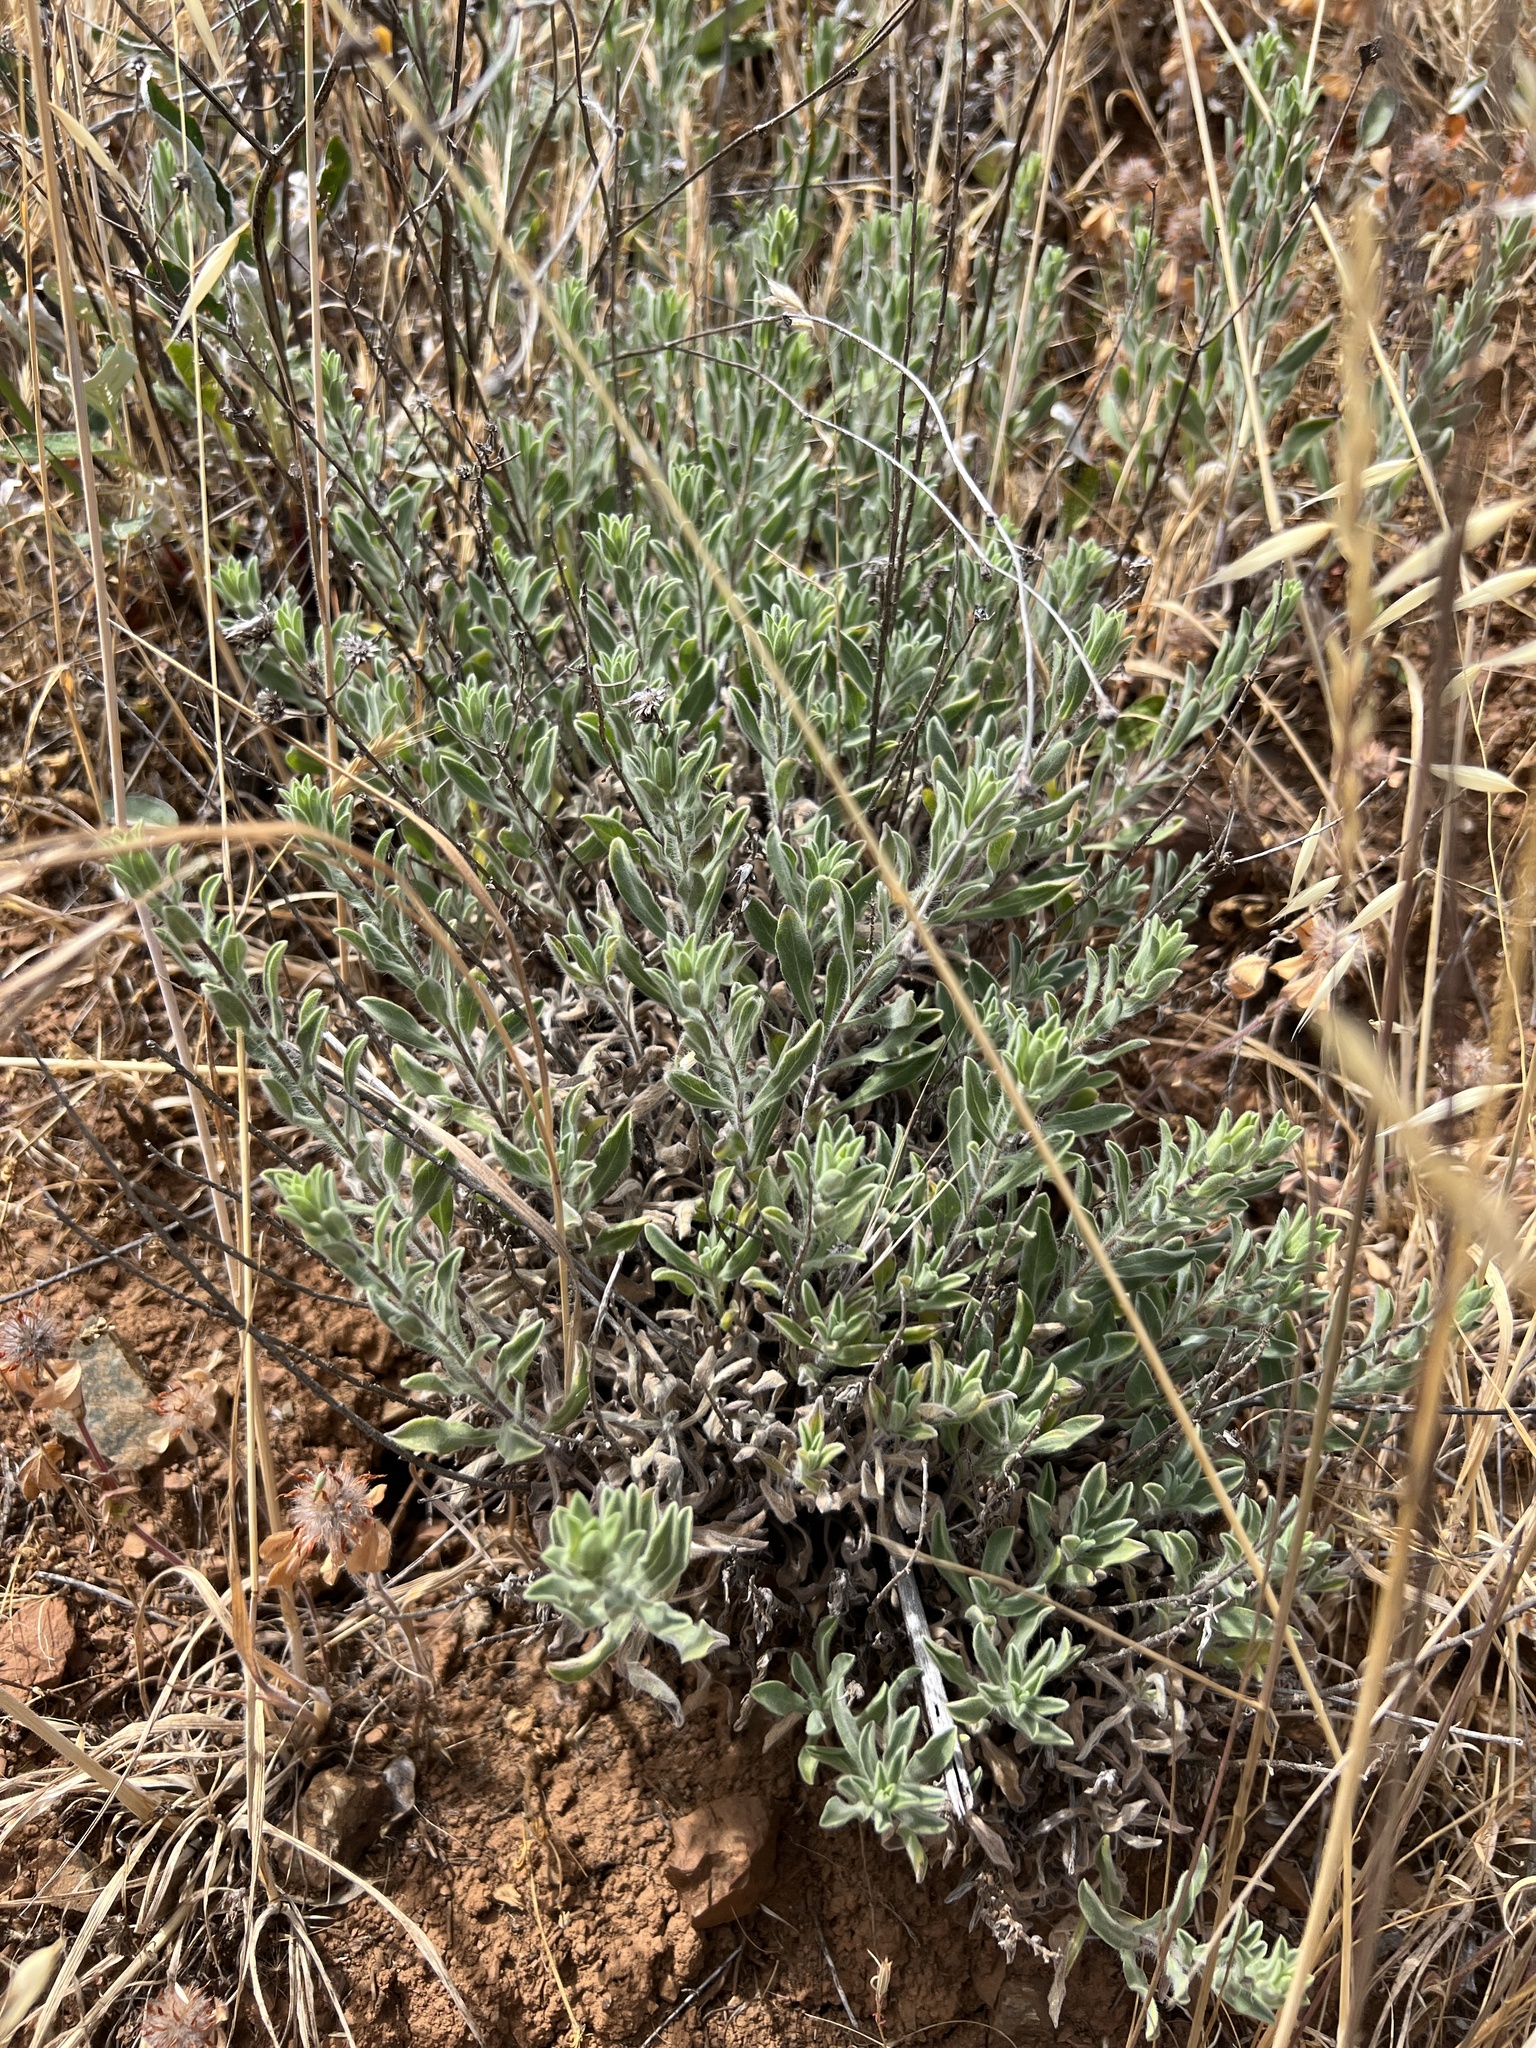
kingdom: Plantae
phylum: Tracheophyta
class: Magnoliopsida
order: Asterales
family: Asteraceae
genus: Heterotheca
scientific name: Heterotheca villosissima
